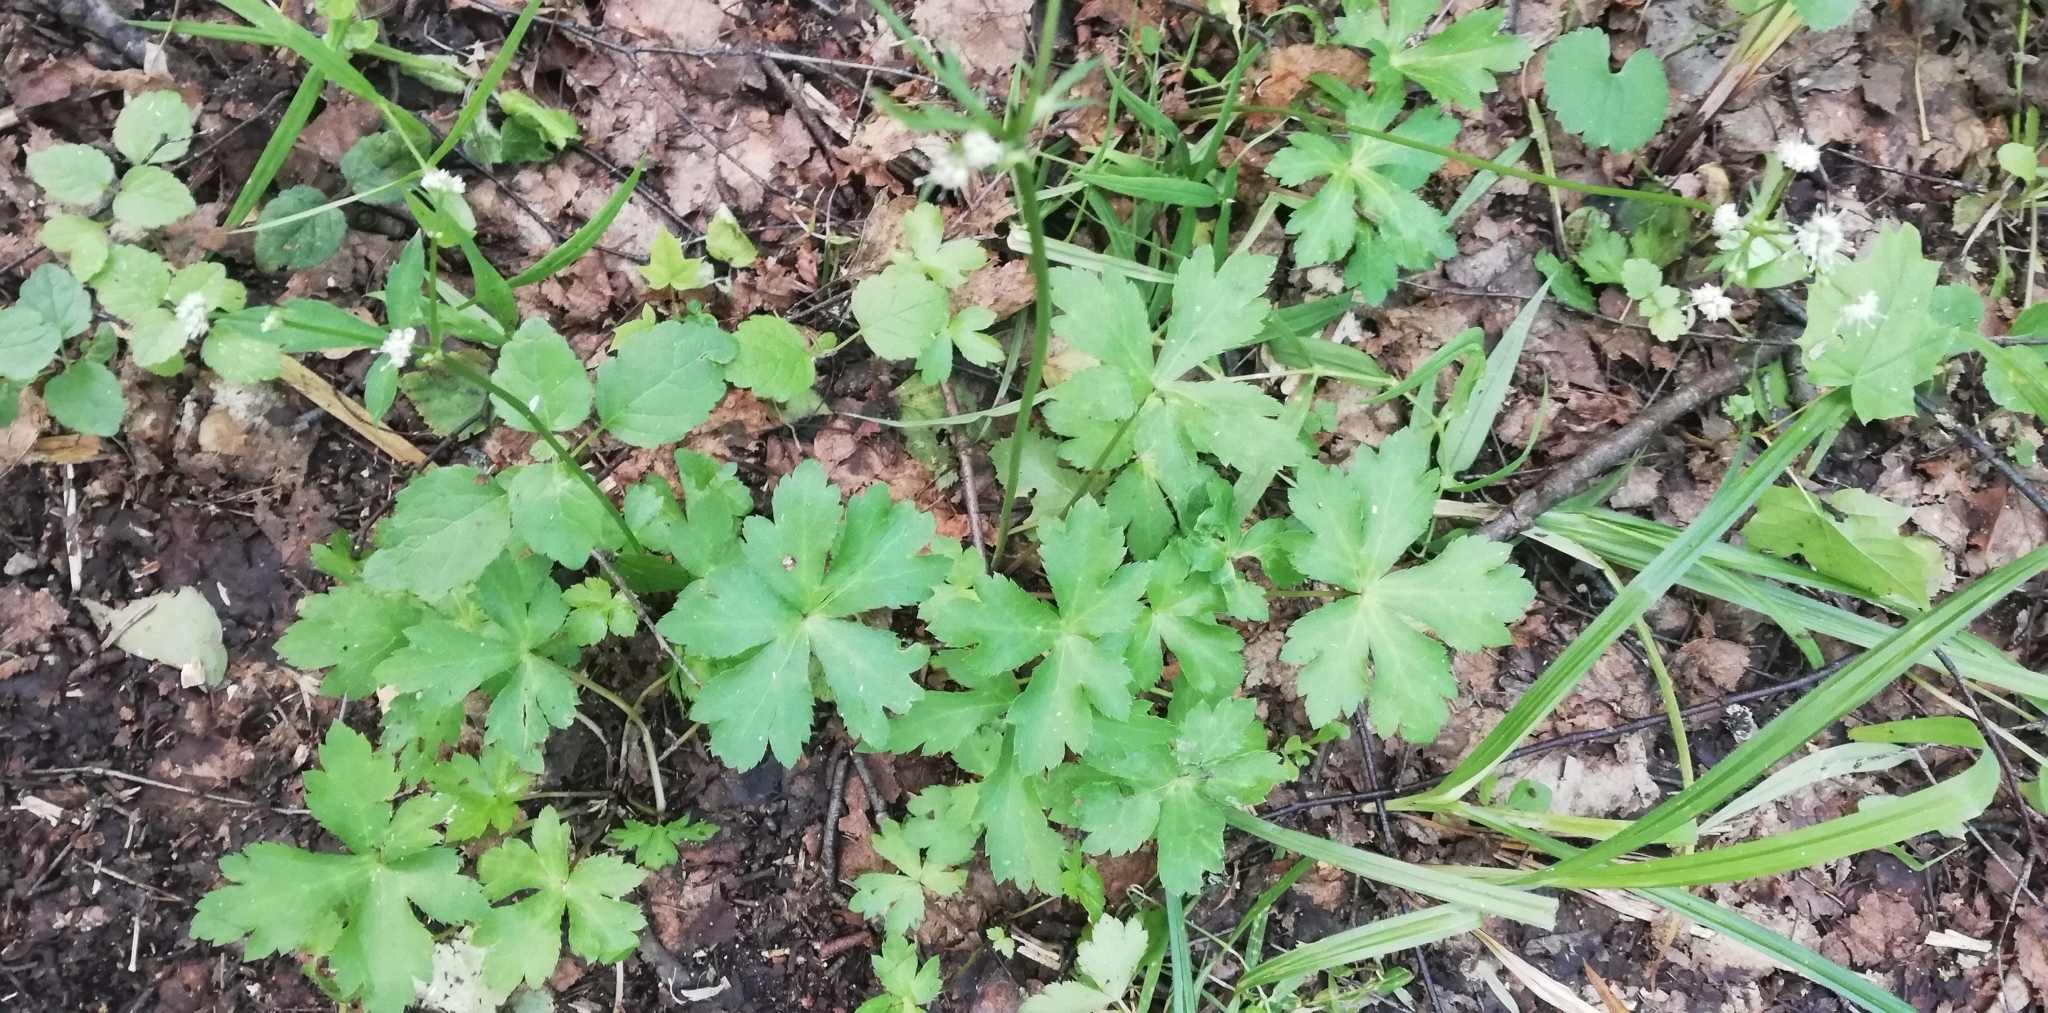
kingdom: Plantae
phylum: Tracheophyta
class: Magnoliopsida
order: Apiales
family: Apiaceae
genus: Sanicula
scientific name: Sanicula europaea
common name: Sanicle
